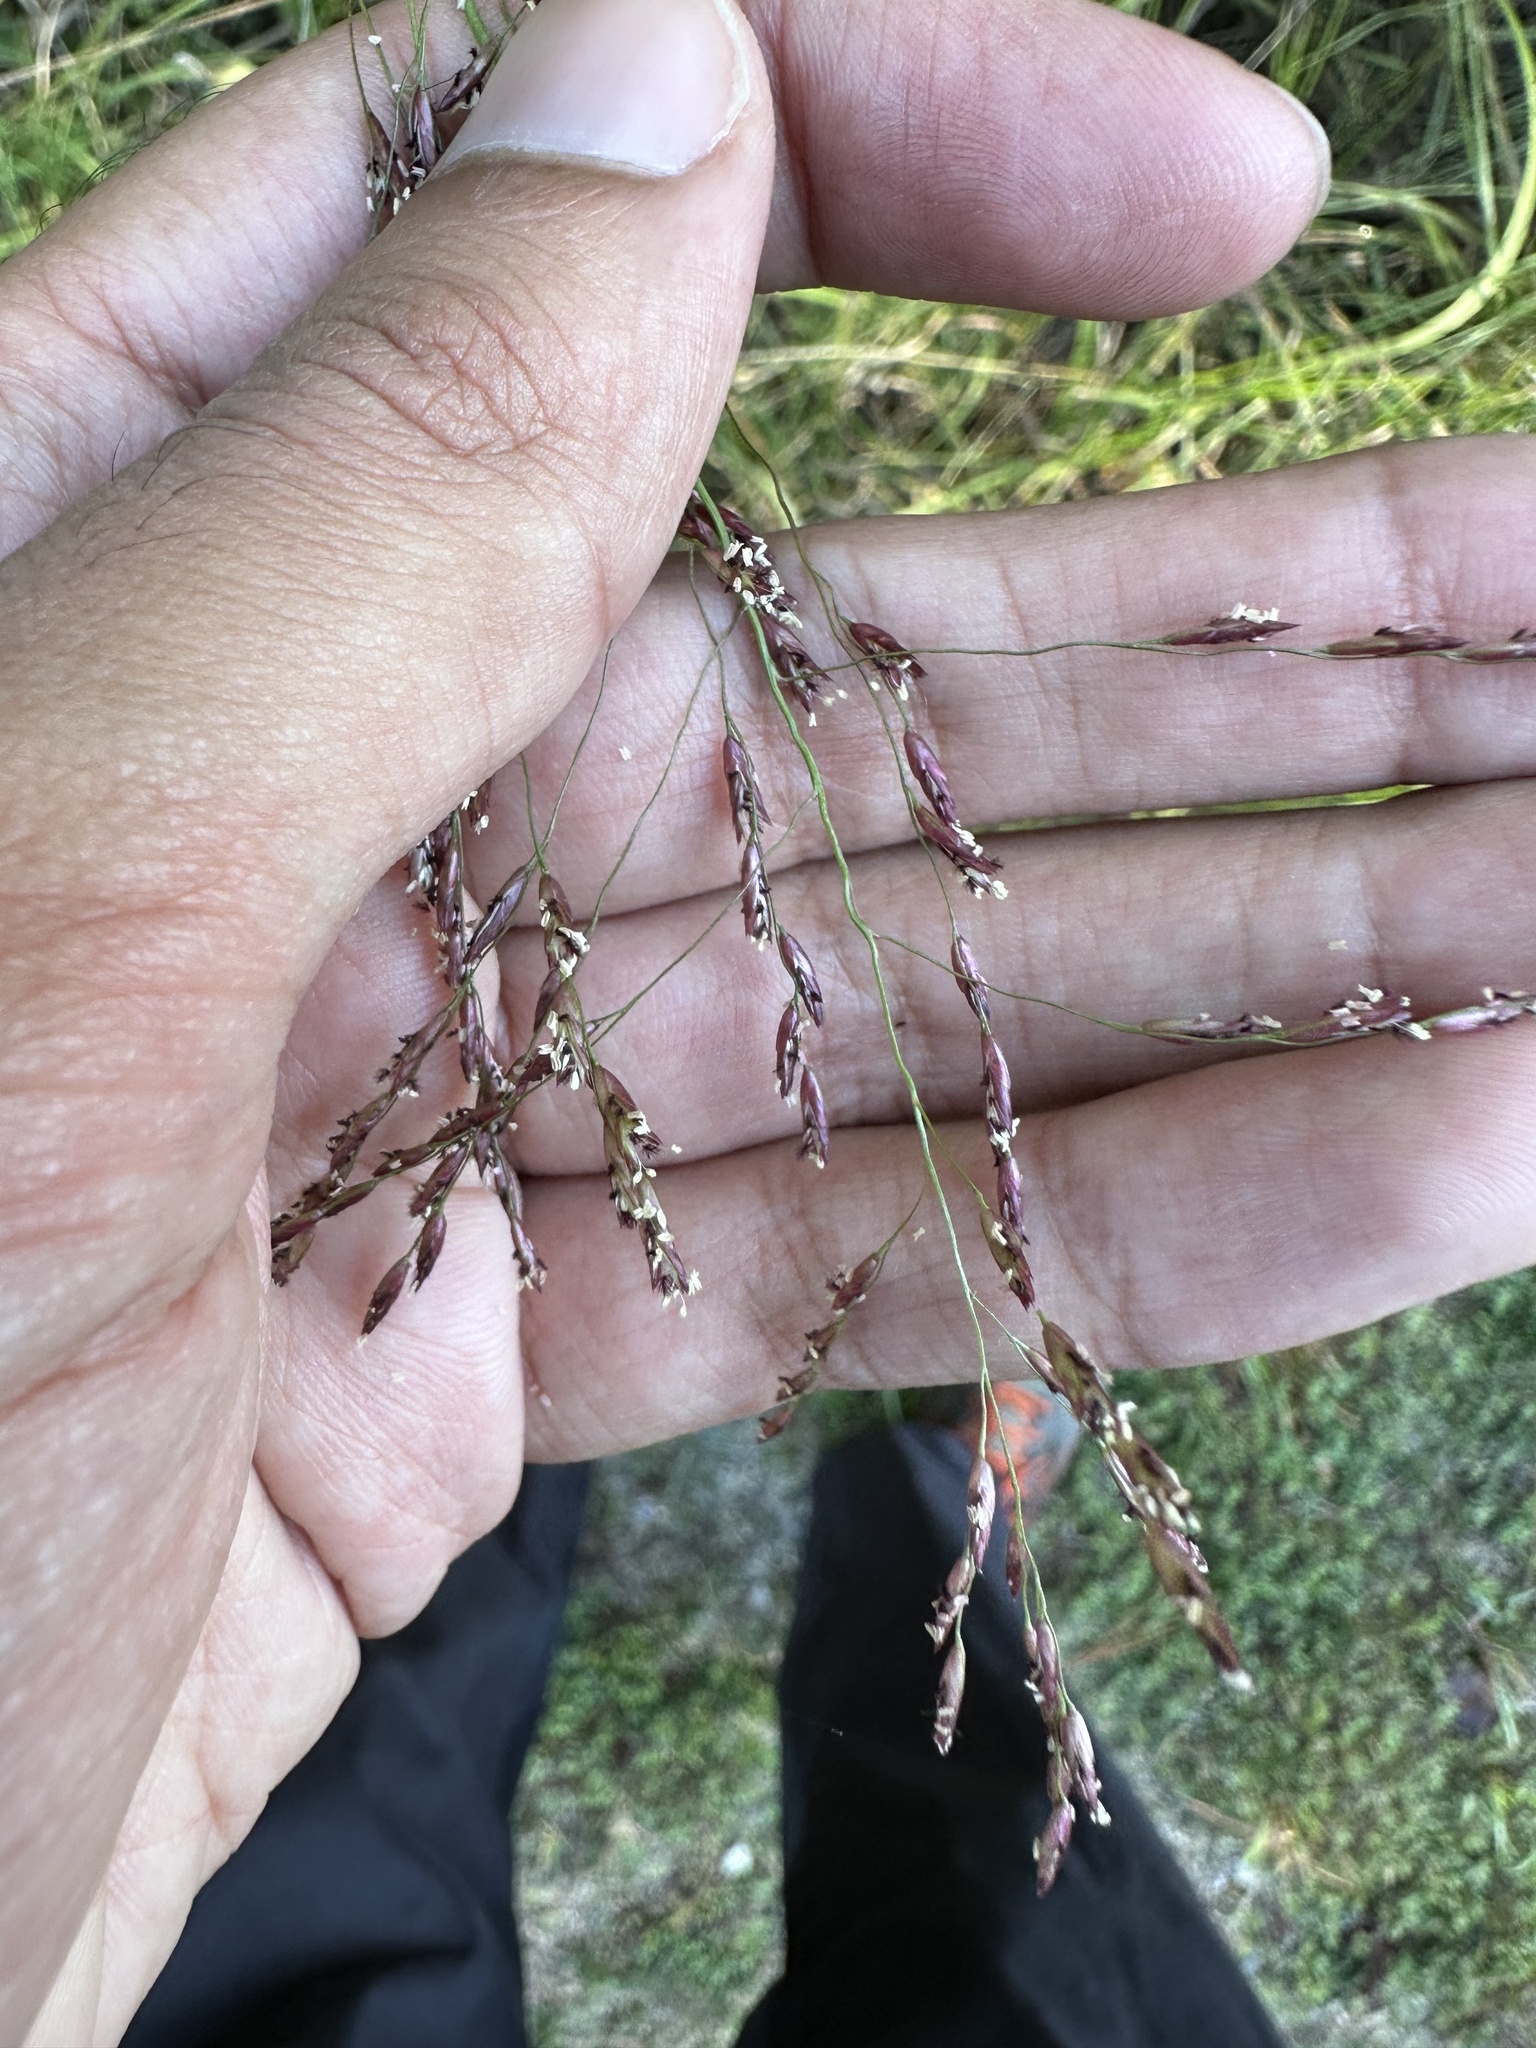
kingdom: Plantae
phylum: Tracheophyta
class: Liliopsida
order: Poales
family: Poaceae
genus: Tridens
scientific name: Tridens flavus
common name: Purpletop
